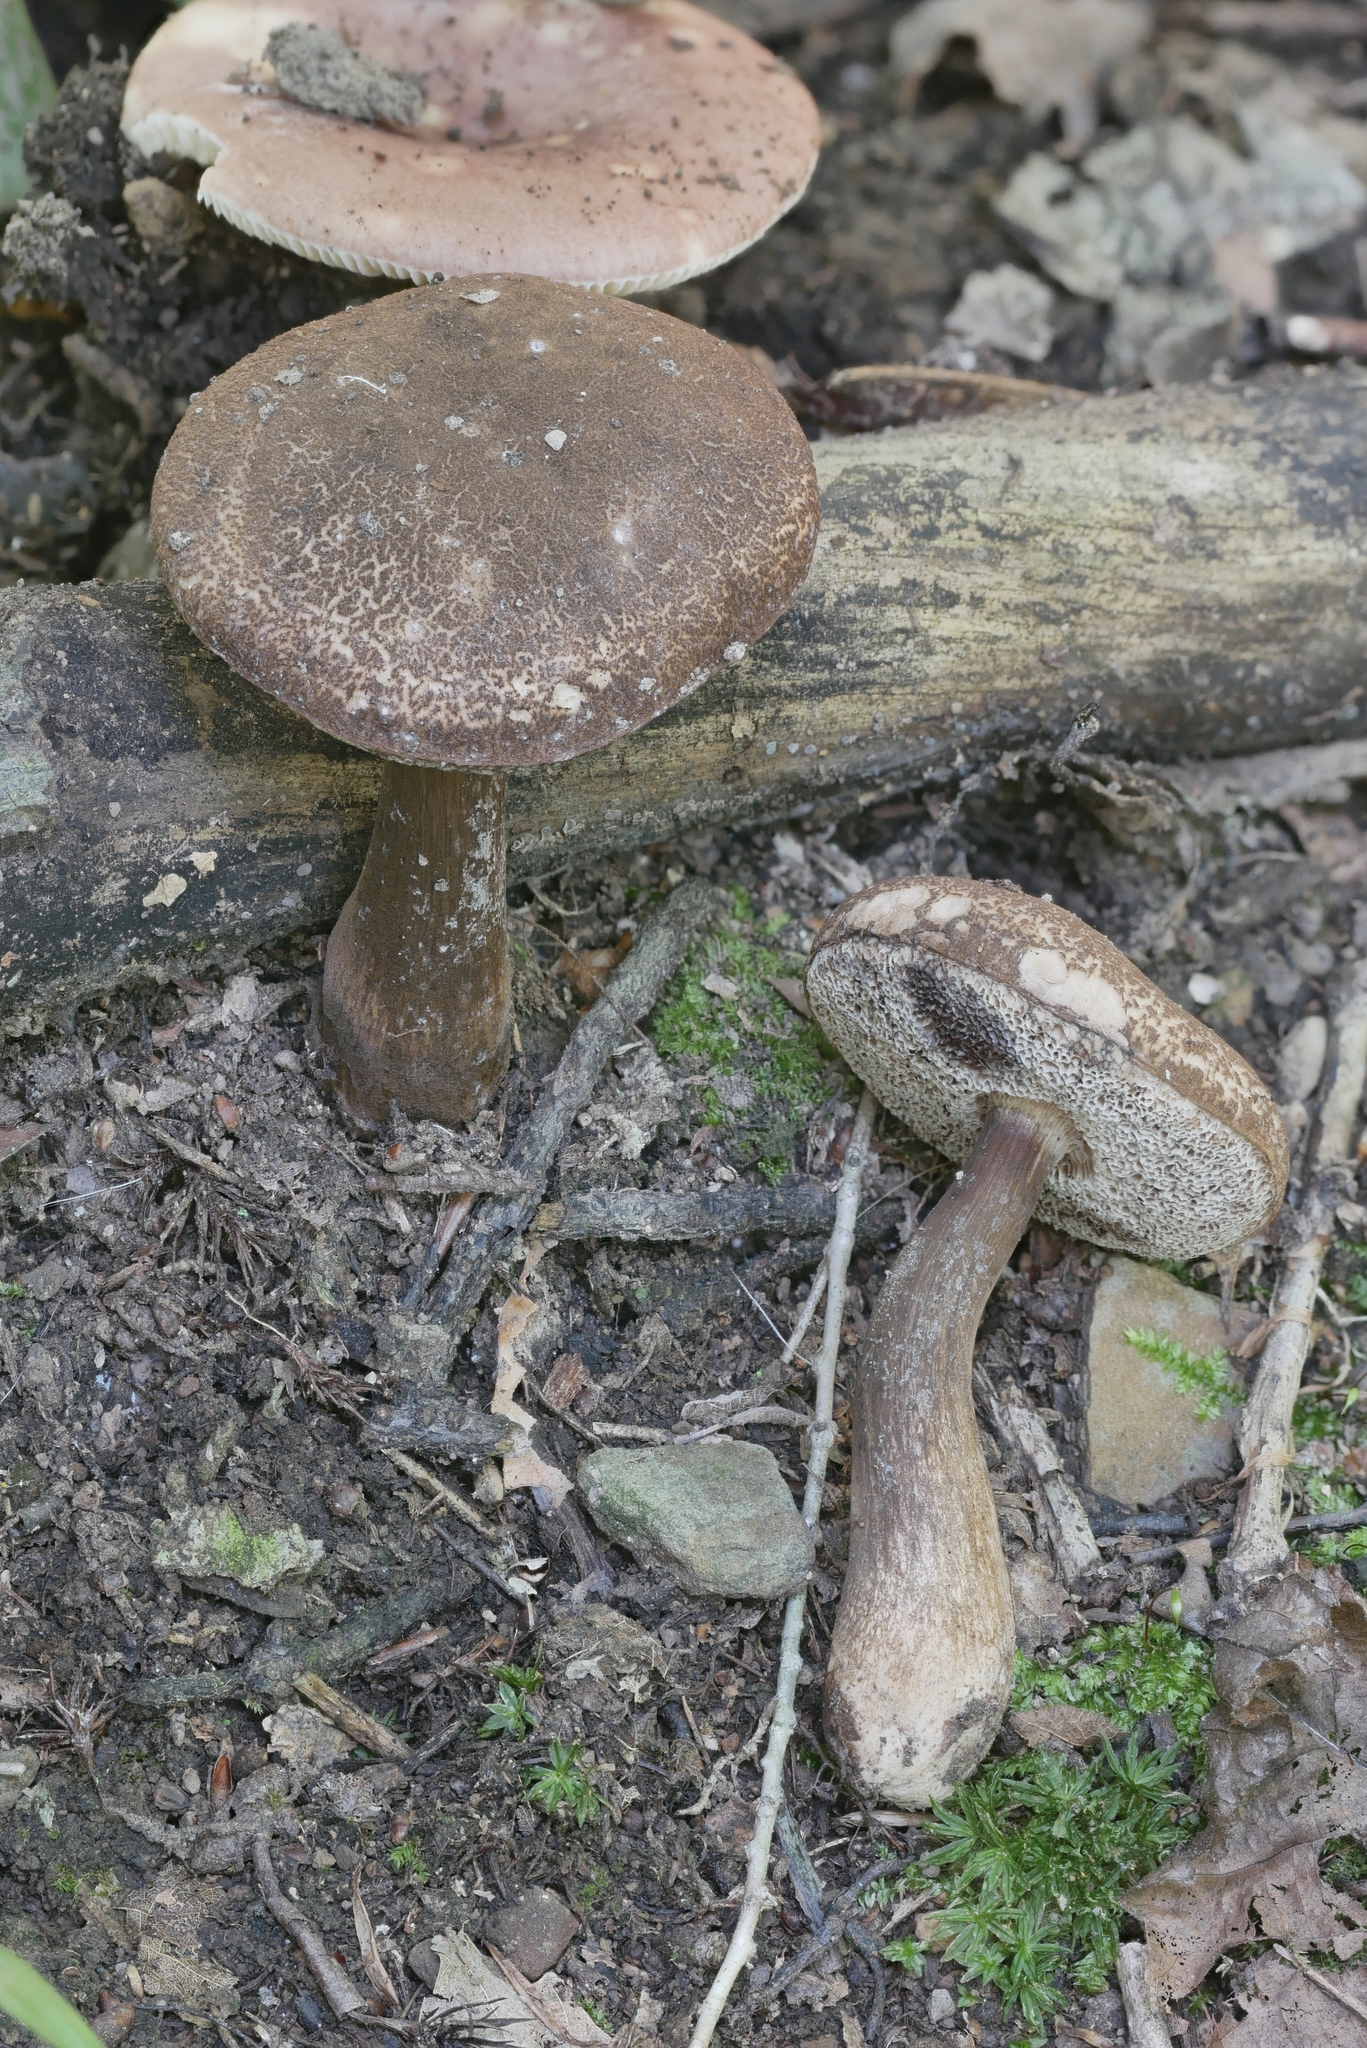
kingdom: Fungi
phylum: Basidiomycota
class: Agaricomycetes
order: Boletales
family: Boletaceae
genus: Boletellus
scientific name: Boletellus chrysenteroides
